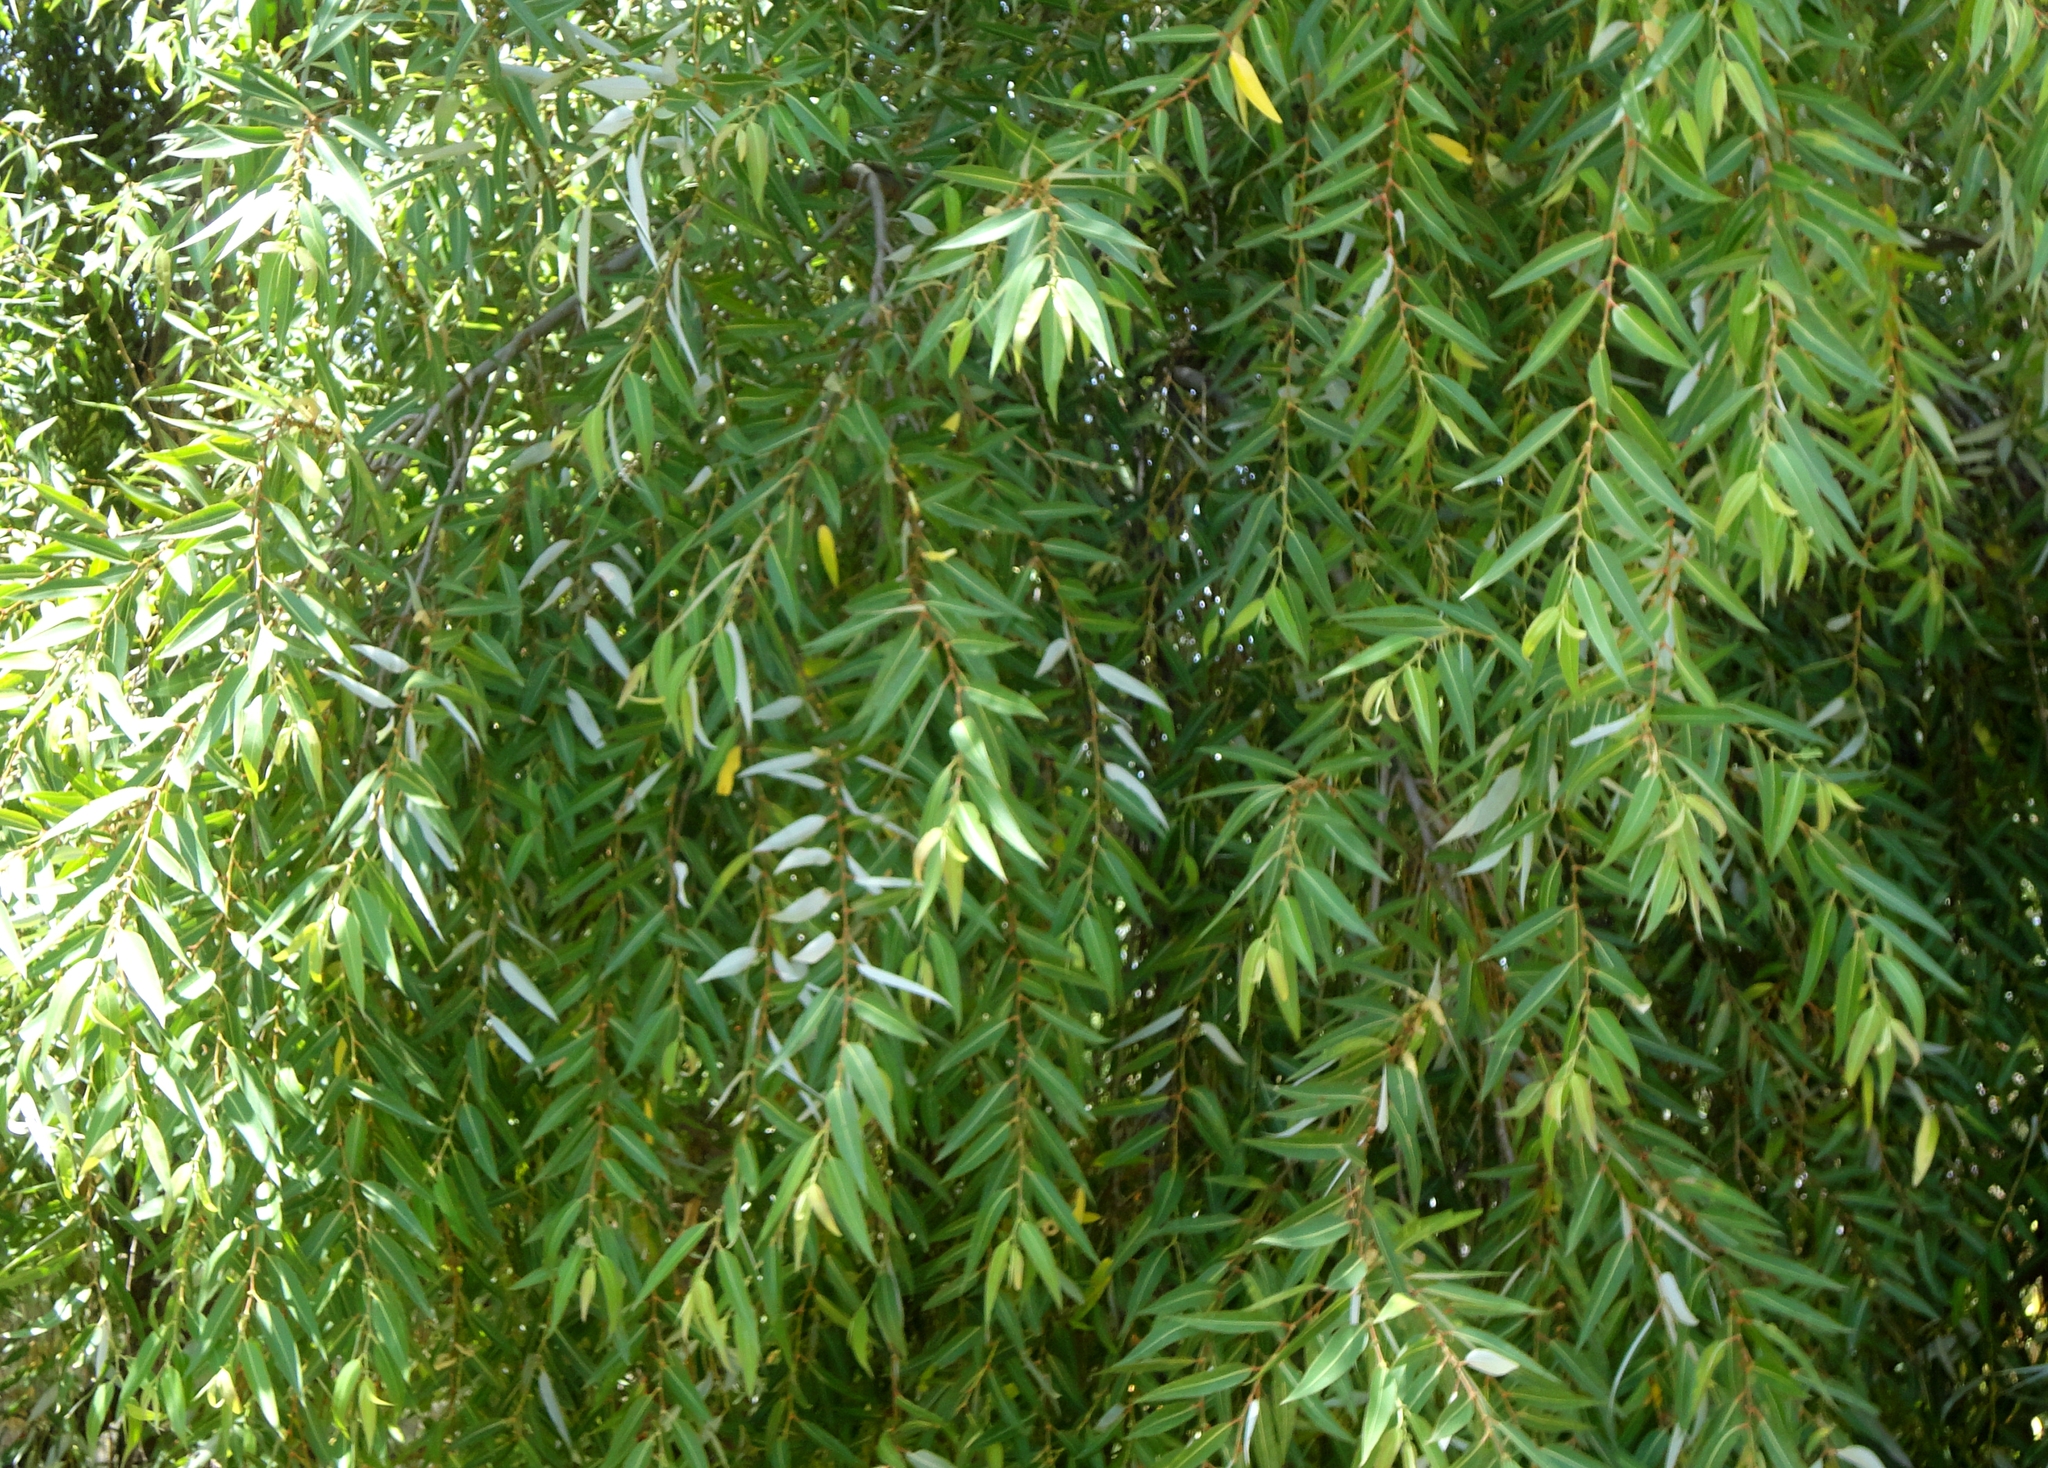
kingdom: Plantae
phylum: Tracheophyta
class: Magnoliopsida
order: Malpighiales
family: Salicaceae
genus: Salix
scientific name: Salix humboldtiana
